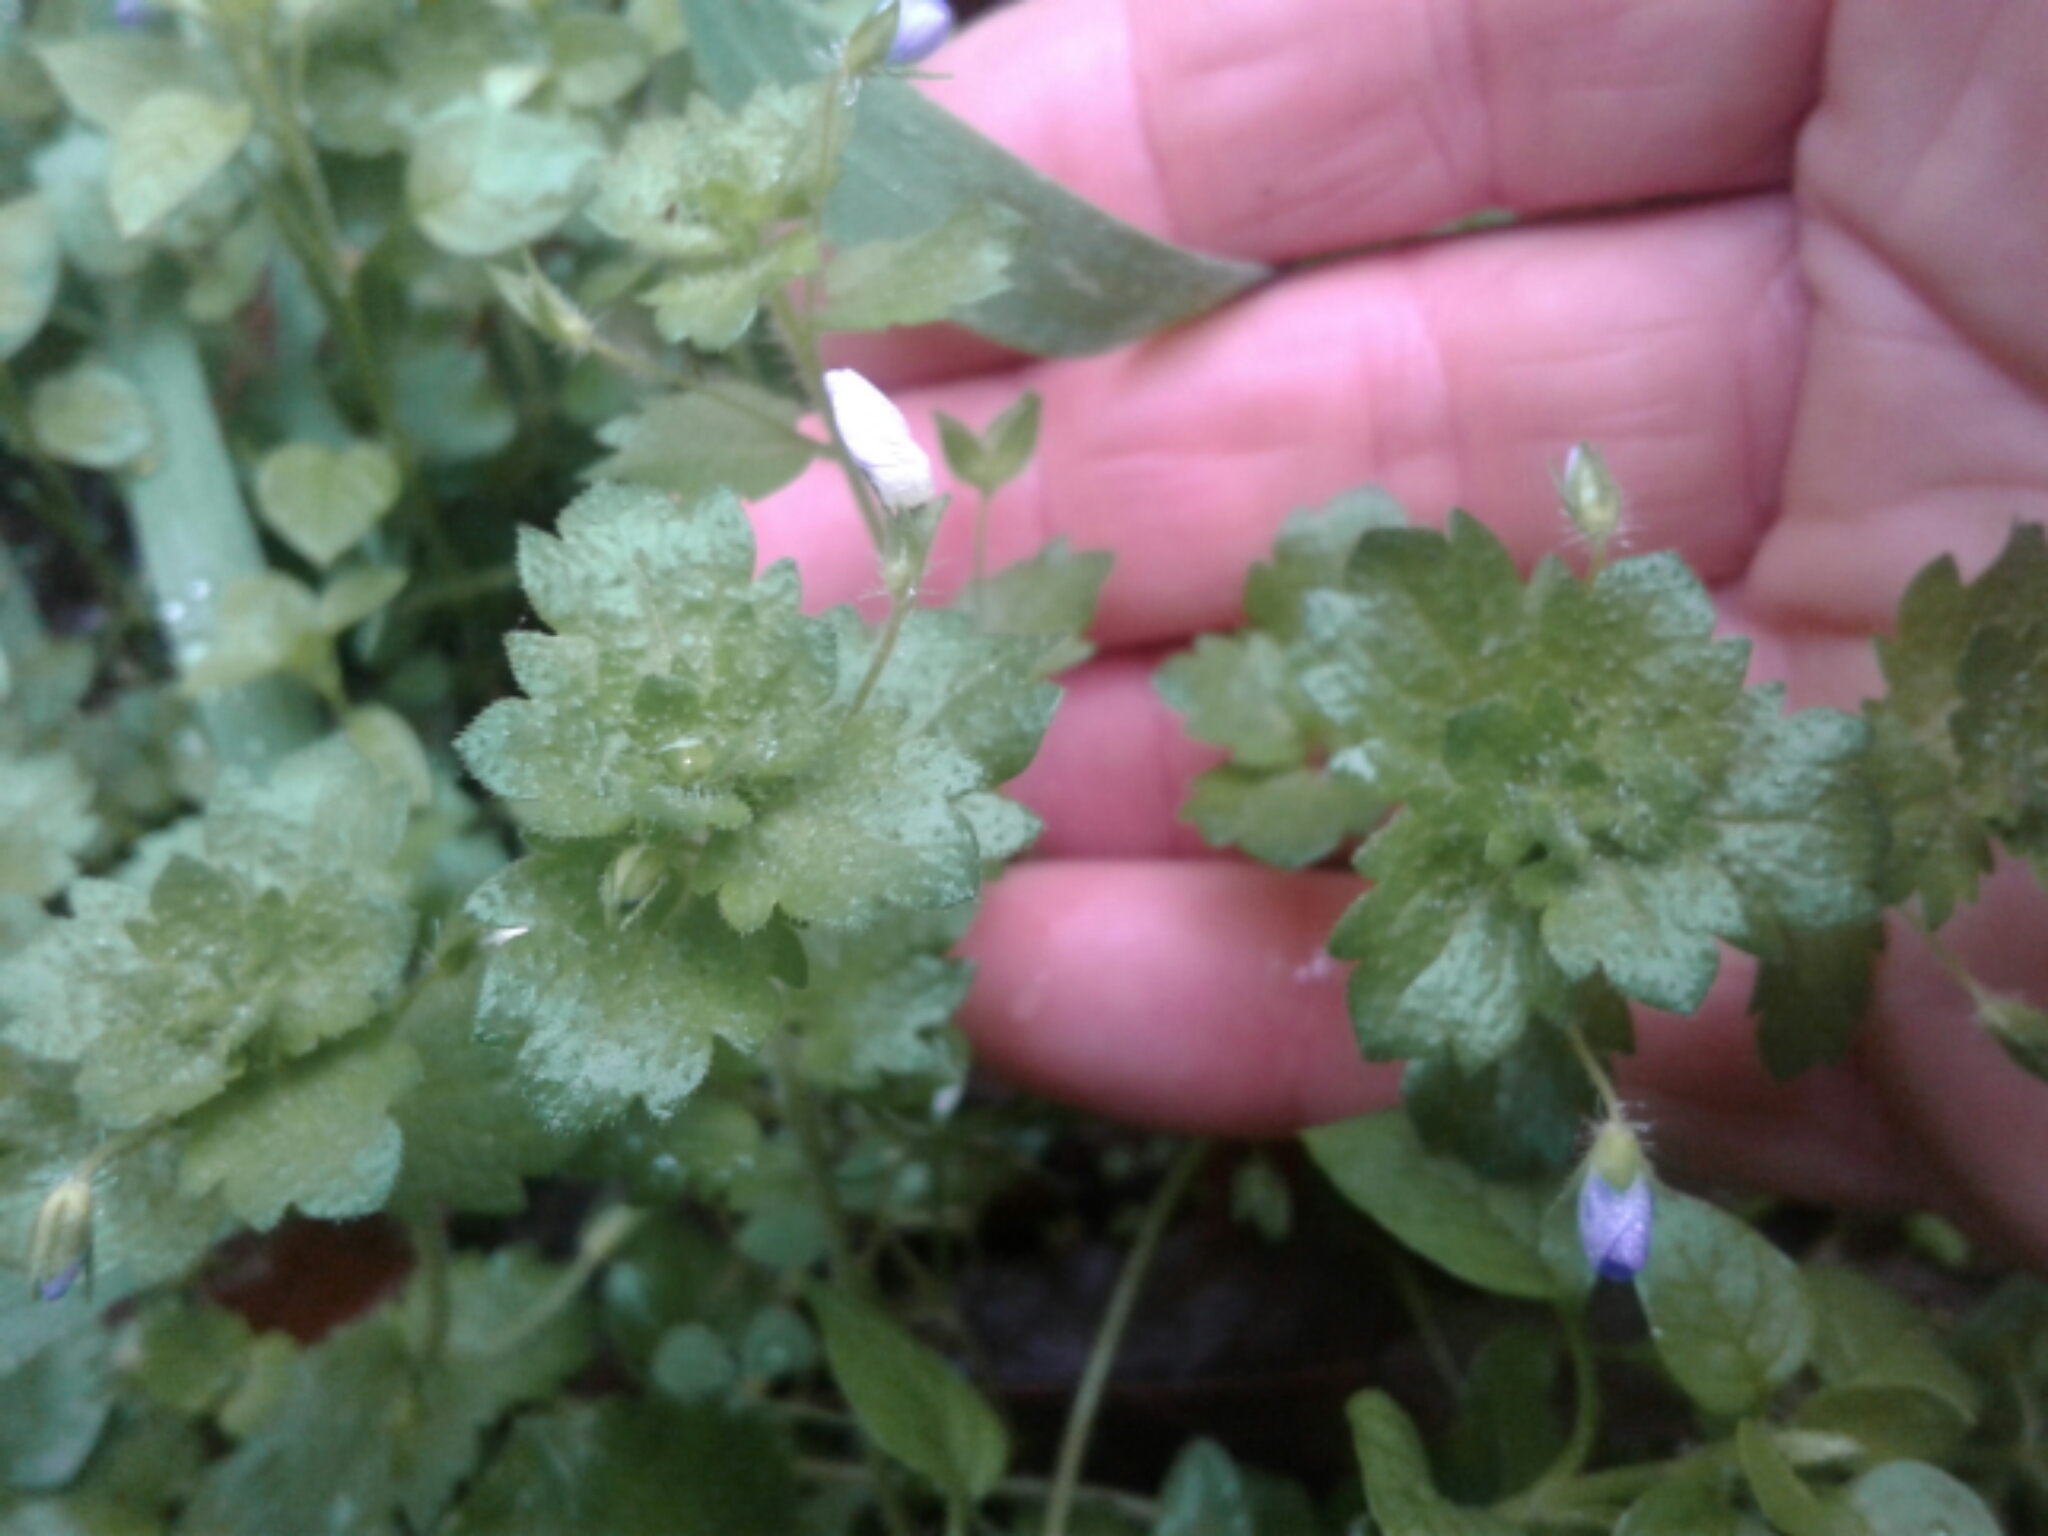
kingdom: Plantae
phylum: Tracheophyta
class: Magnoliopsida
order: Lamiales
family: Plantaginaceae
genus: Veronica
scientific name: Veronica persica
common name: Common field-speedwell
